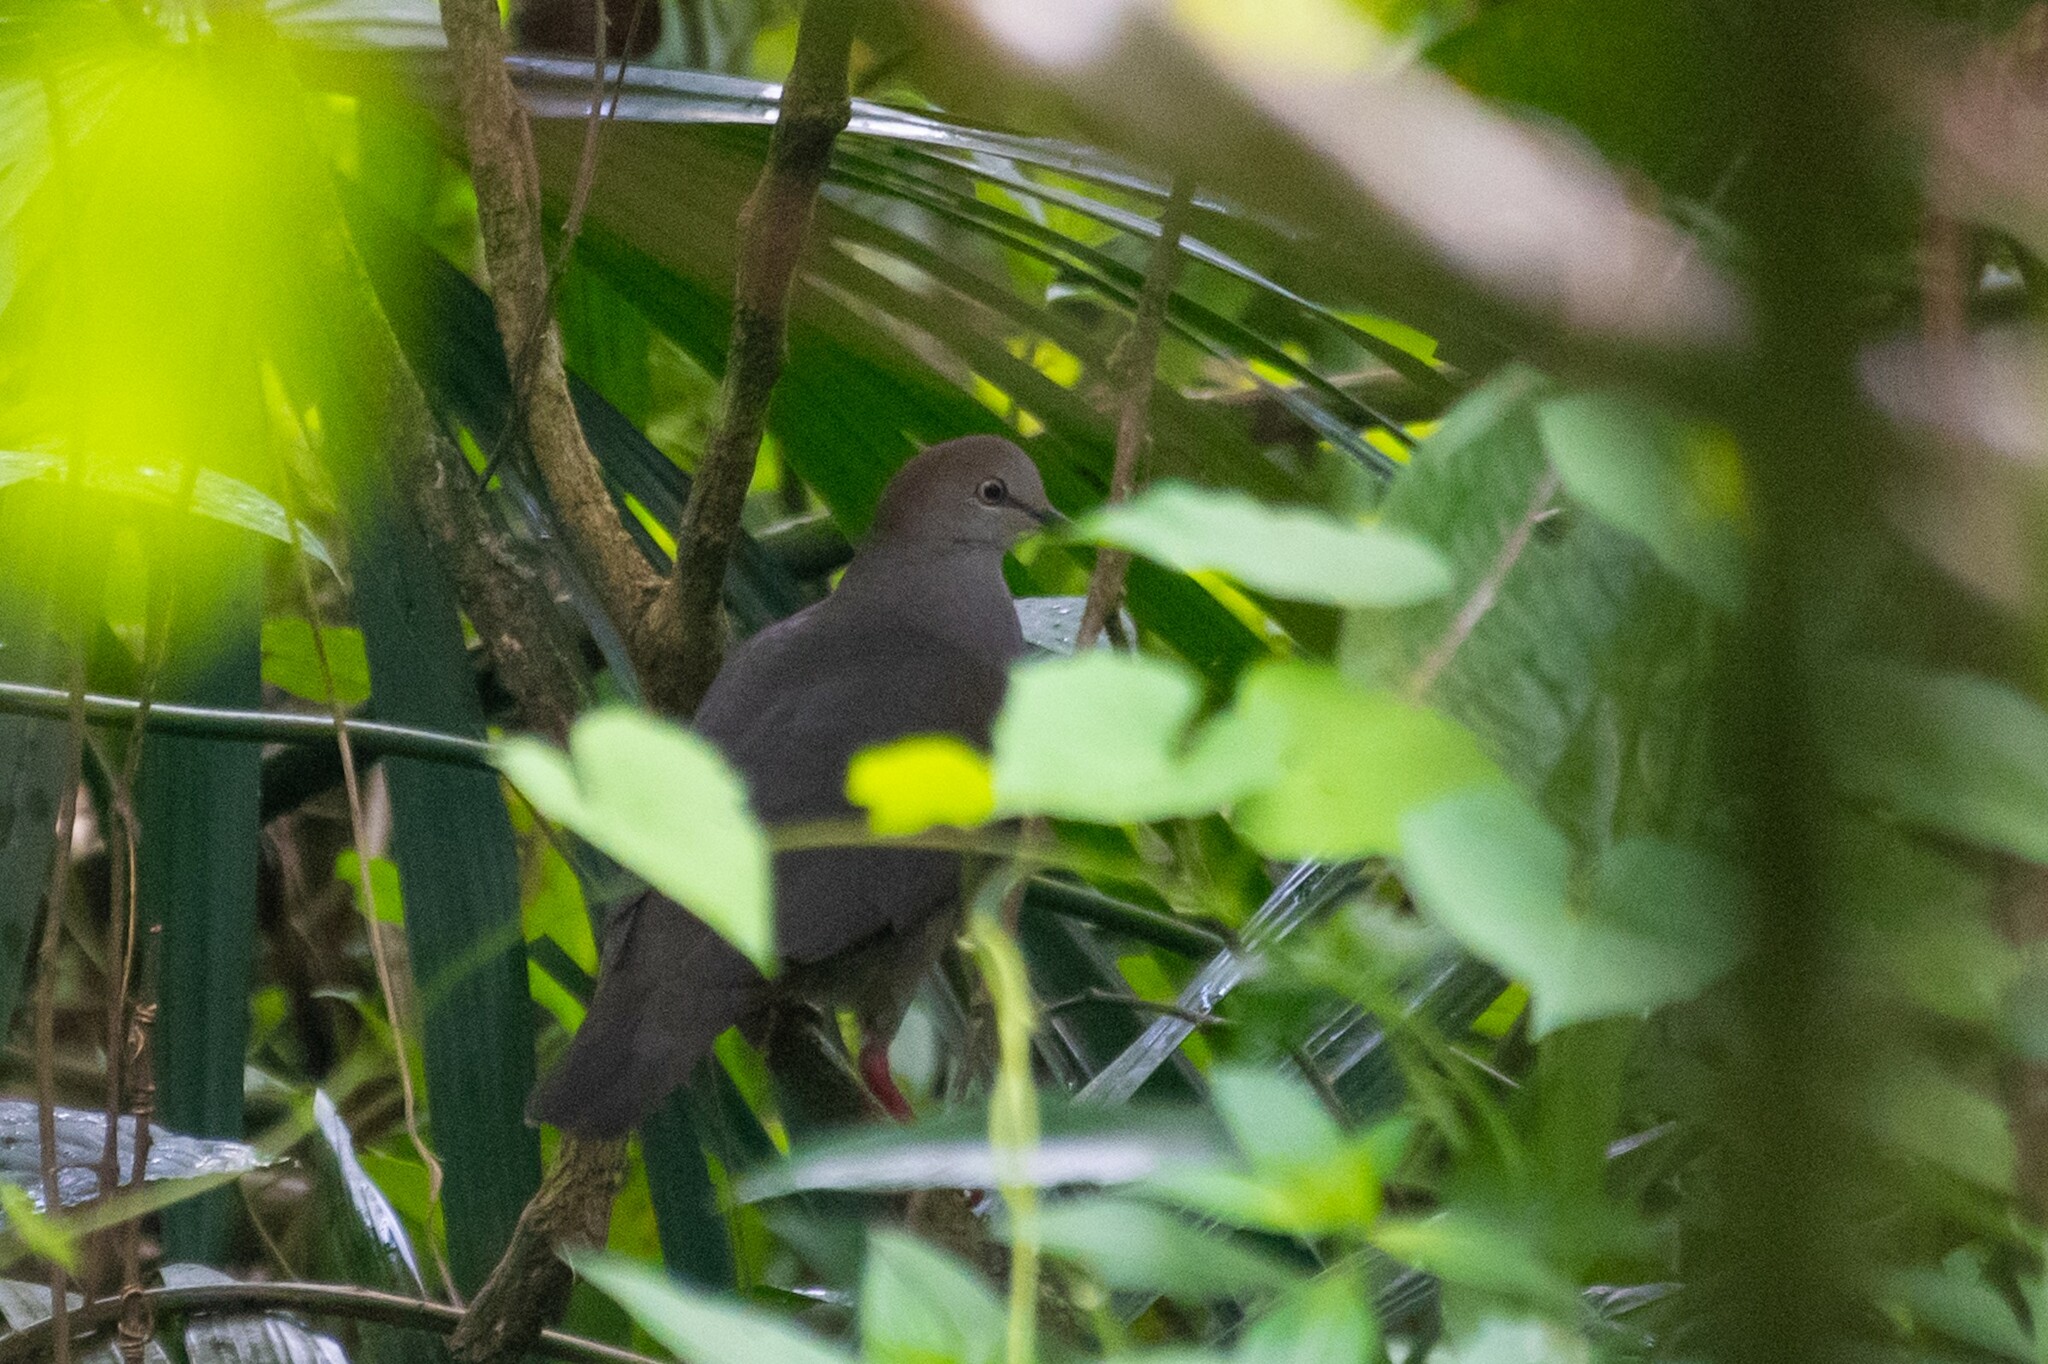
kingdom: Animalia
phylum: Chordata
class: Aves
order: Columbiformes
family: Columbidae
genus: Leptotila
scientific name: Leptotila cassinii
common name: Grey-chested dove
